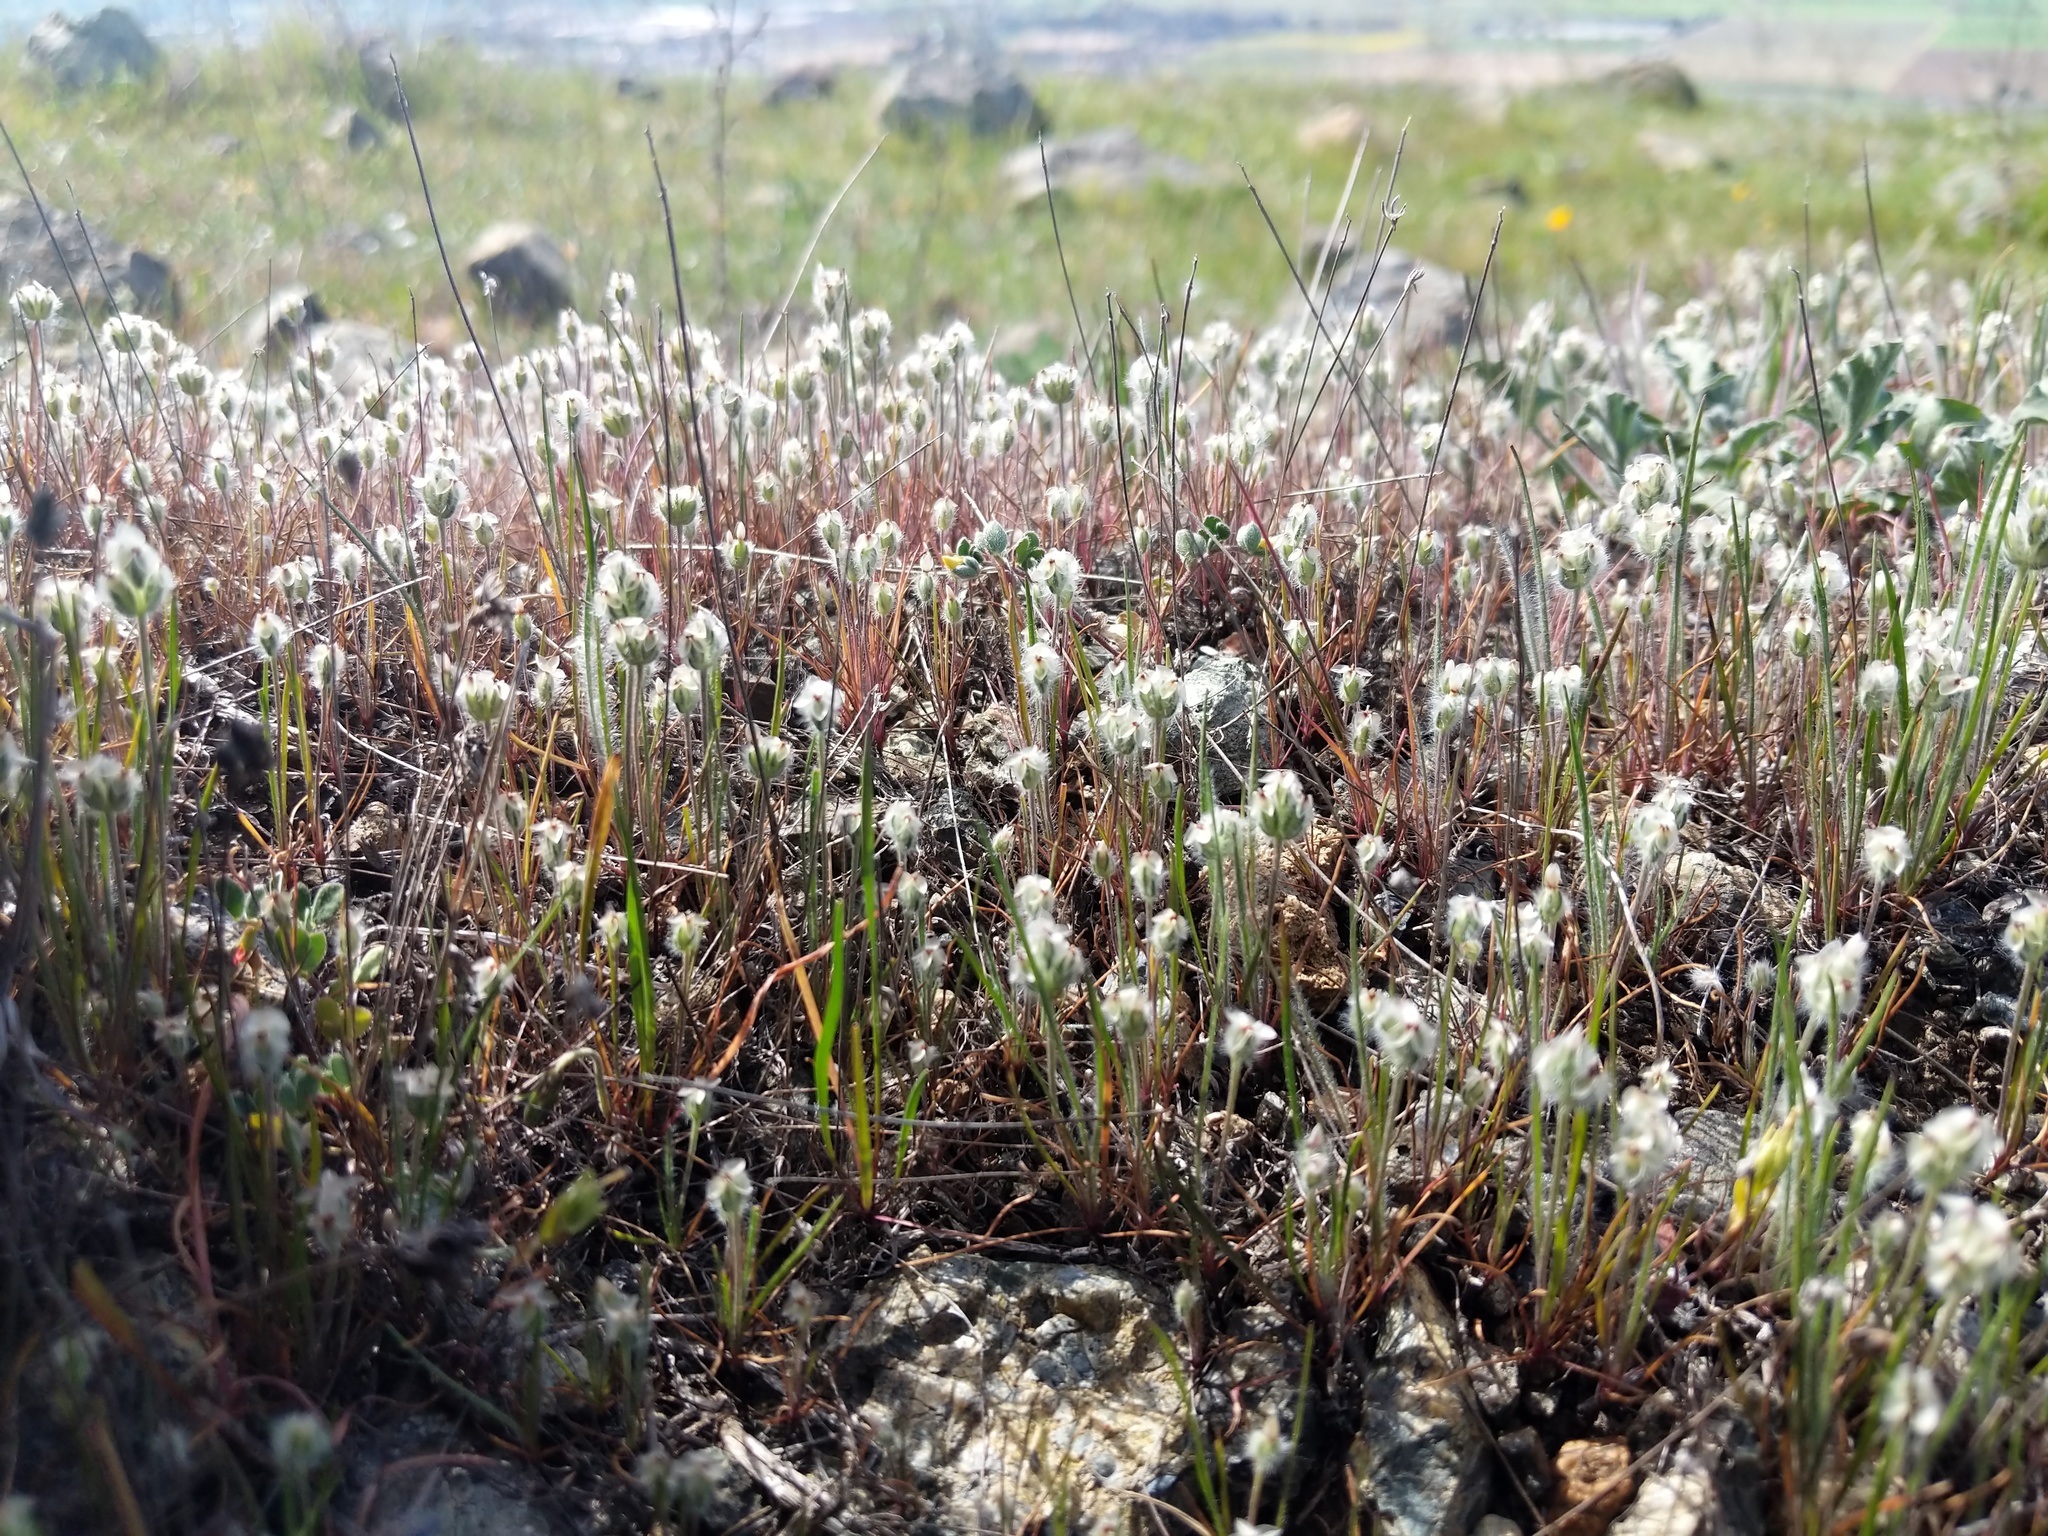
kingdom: Plantae
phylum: Tracheophyta
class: Magnoliopsida
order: Lamiales
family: Plantaginaceae
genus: Plantago
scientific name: Plantago erecta
